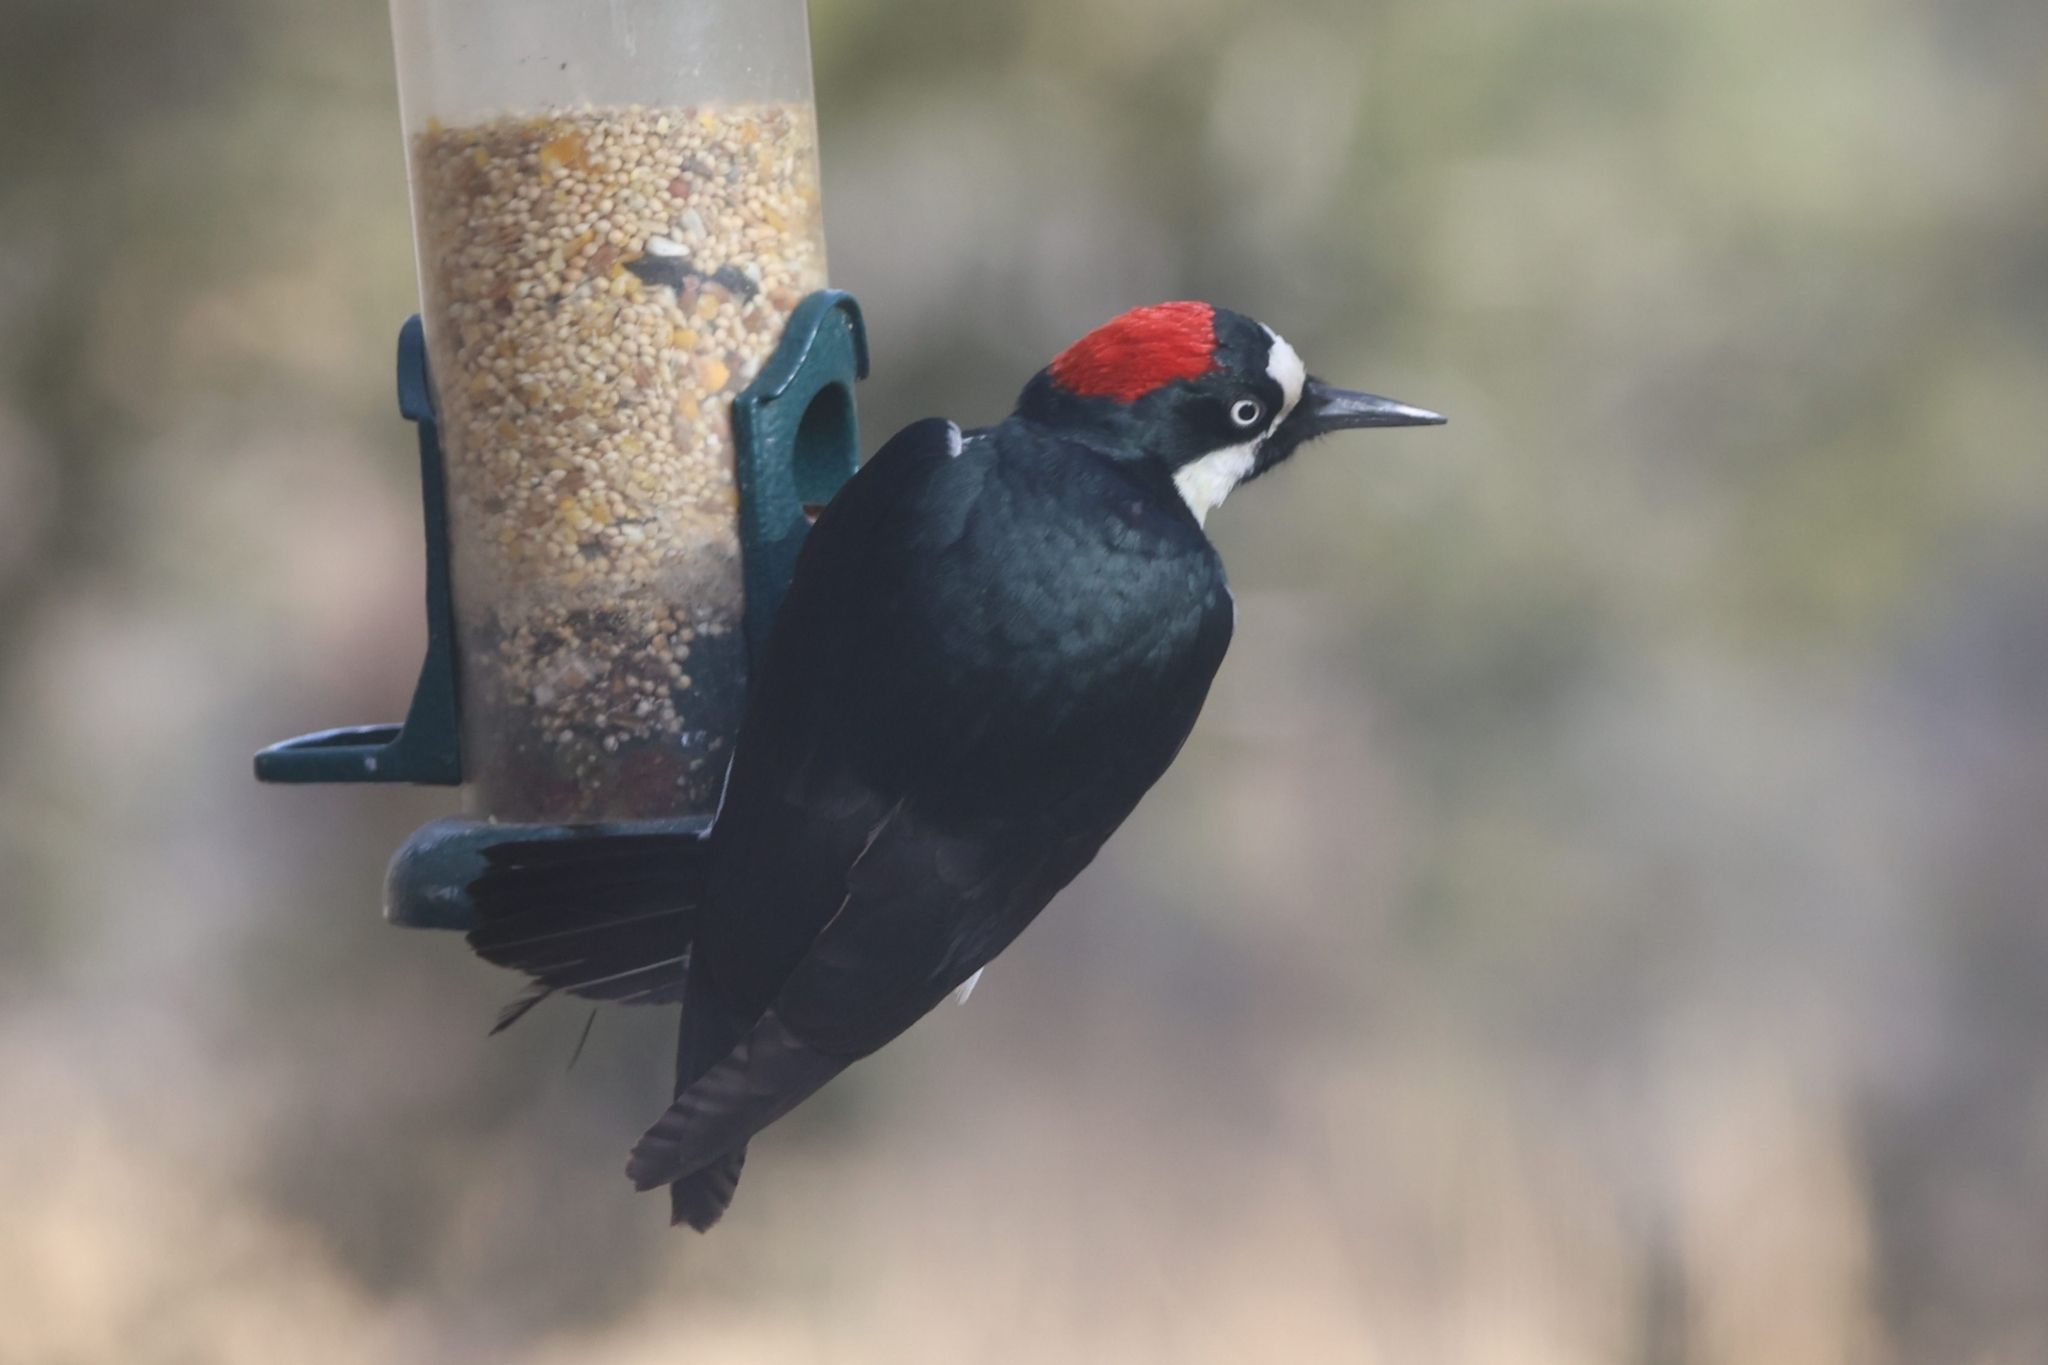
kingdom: Animalia
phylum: Chordata
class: Aves
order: Piciformes
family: Picidae
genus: Melanerpes
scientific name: Melanerpes formicivorus
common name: Acorn woodpecker
